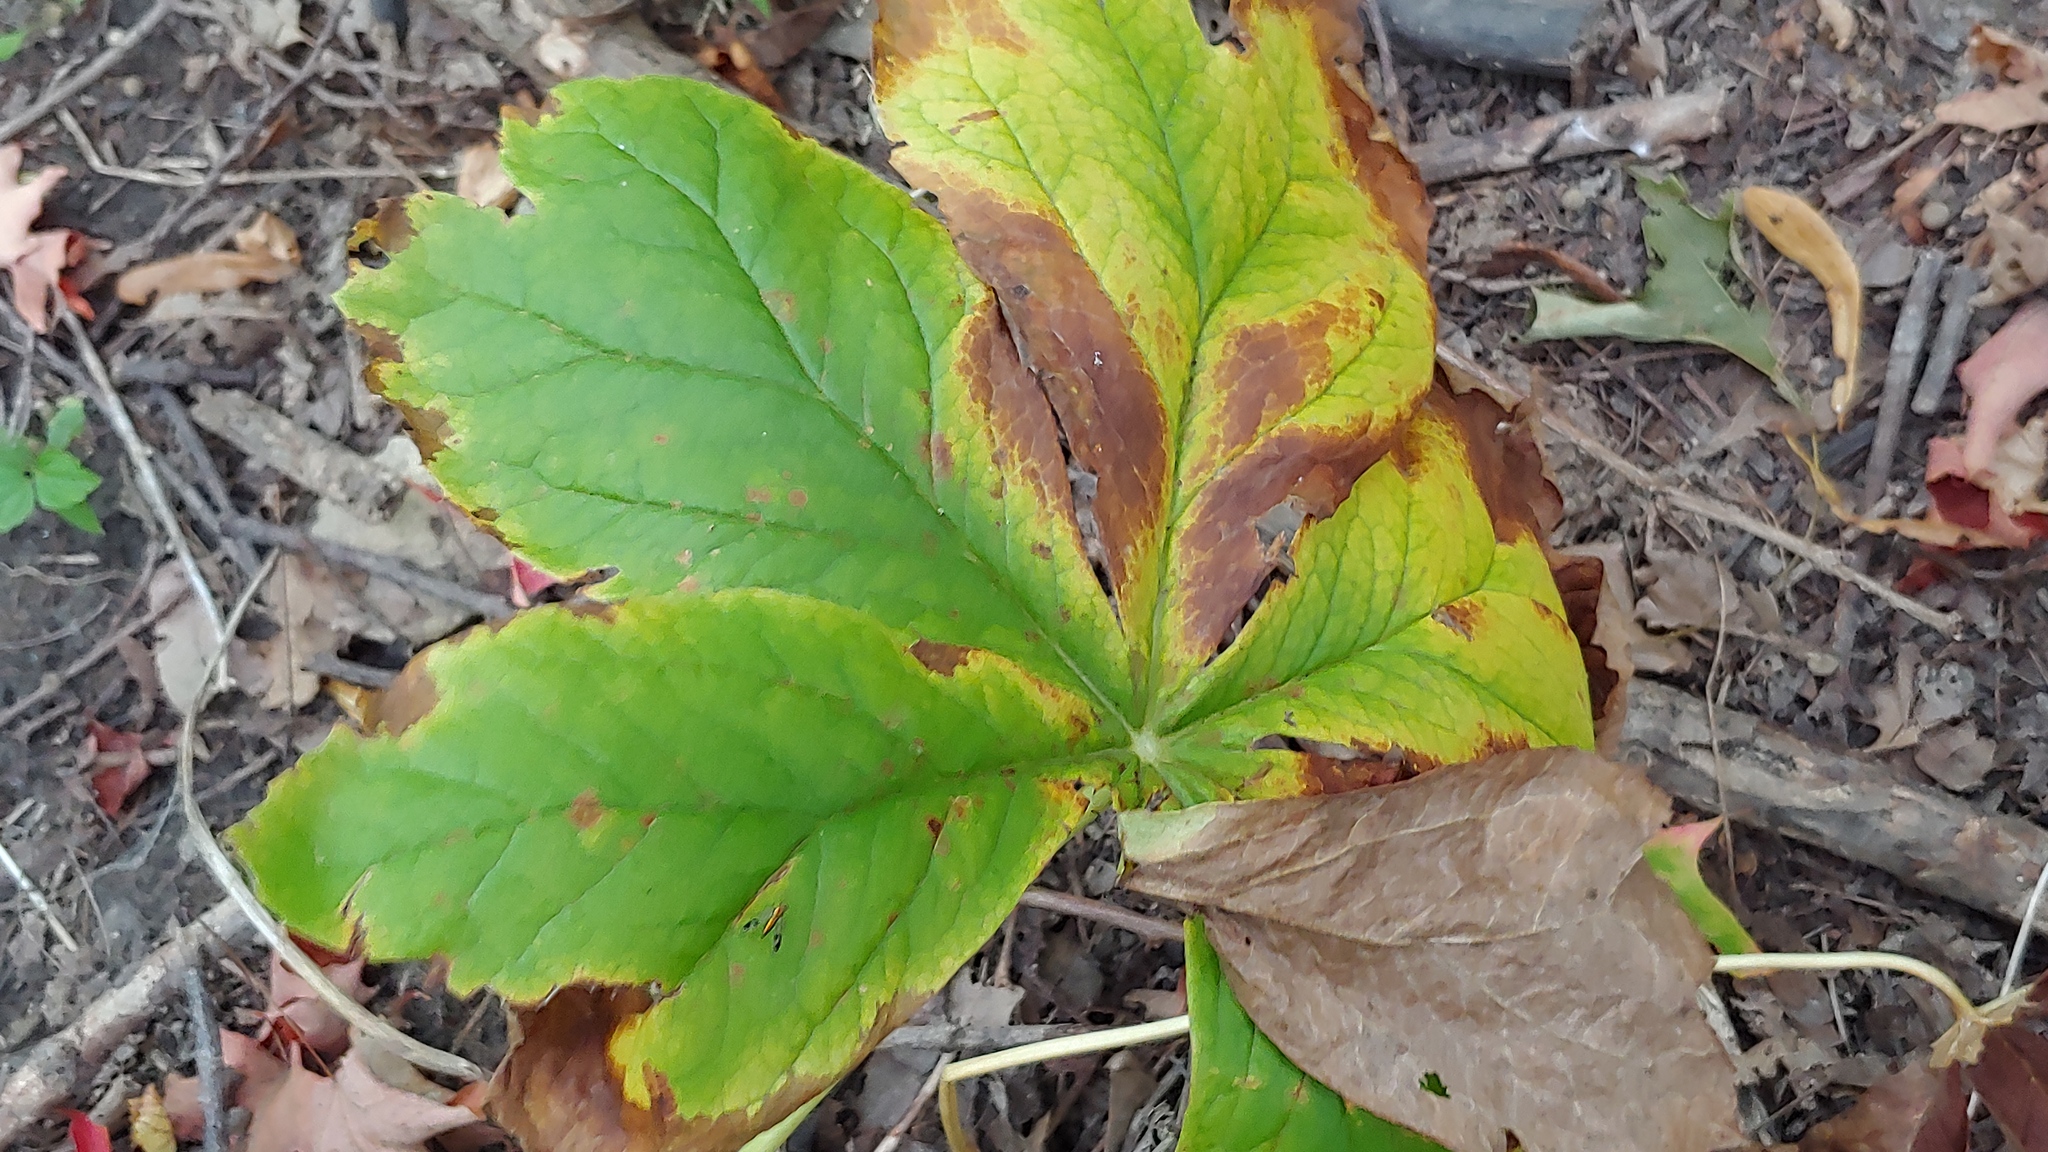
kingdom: Plantae
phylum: Tracheophyta
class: Magnoliopsida
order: Ranunculales
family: Berberidaceae
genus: Podophyllum
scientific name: Podophyllum peltatum
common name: Wild mandrake
